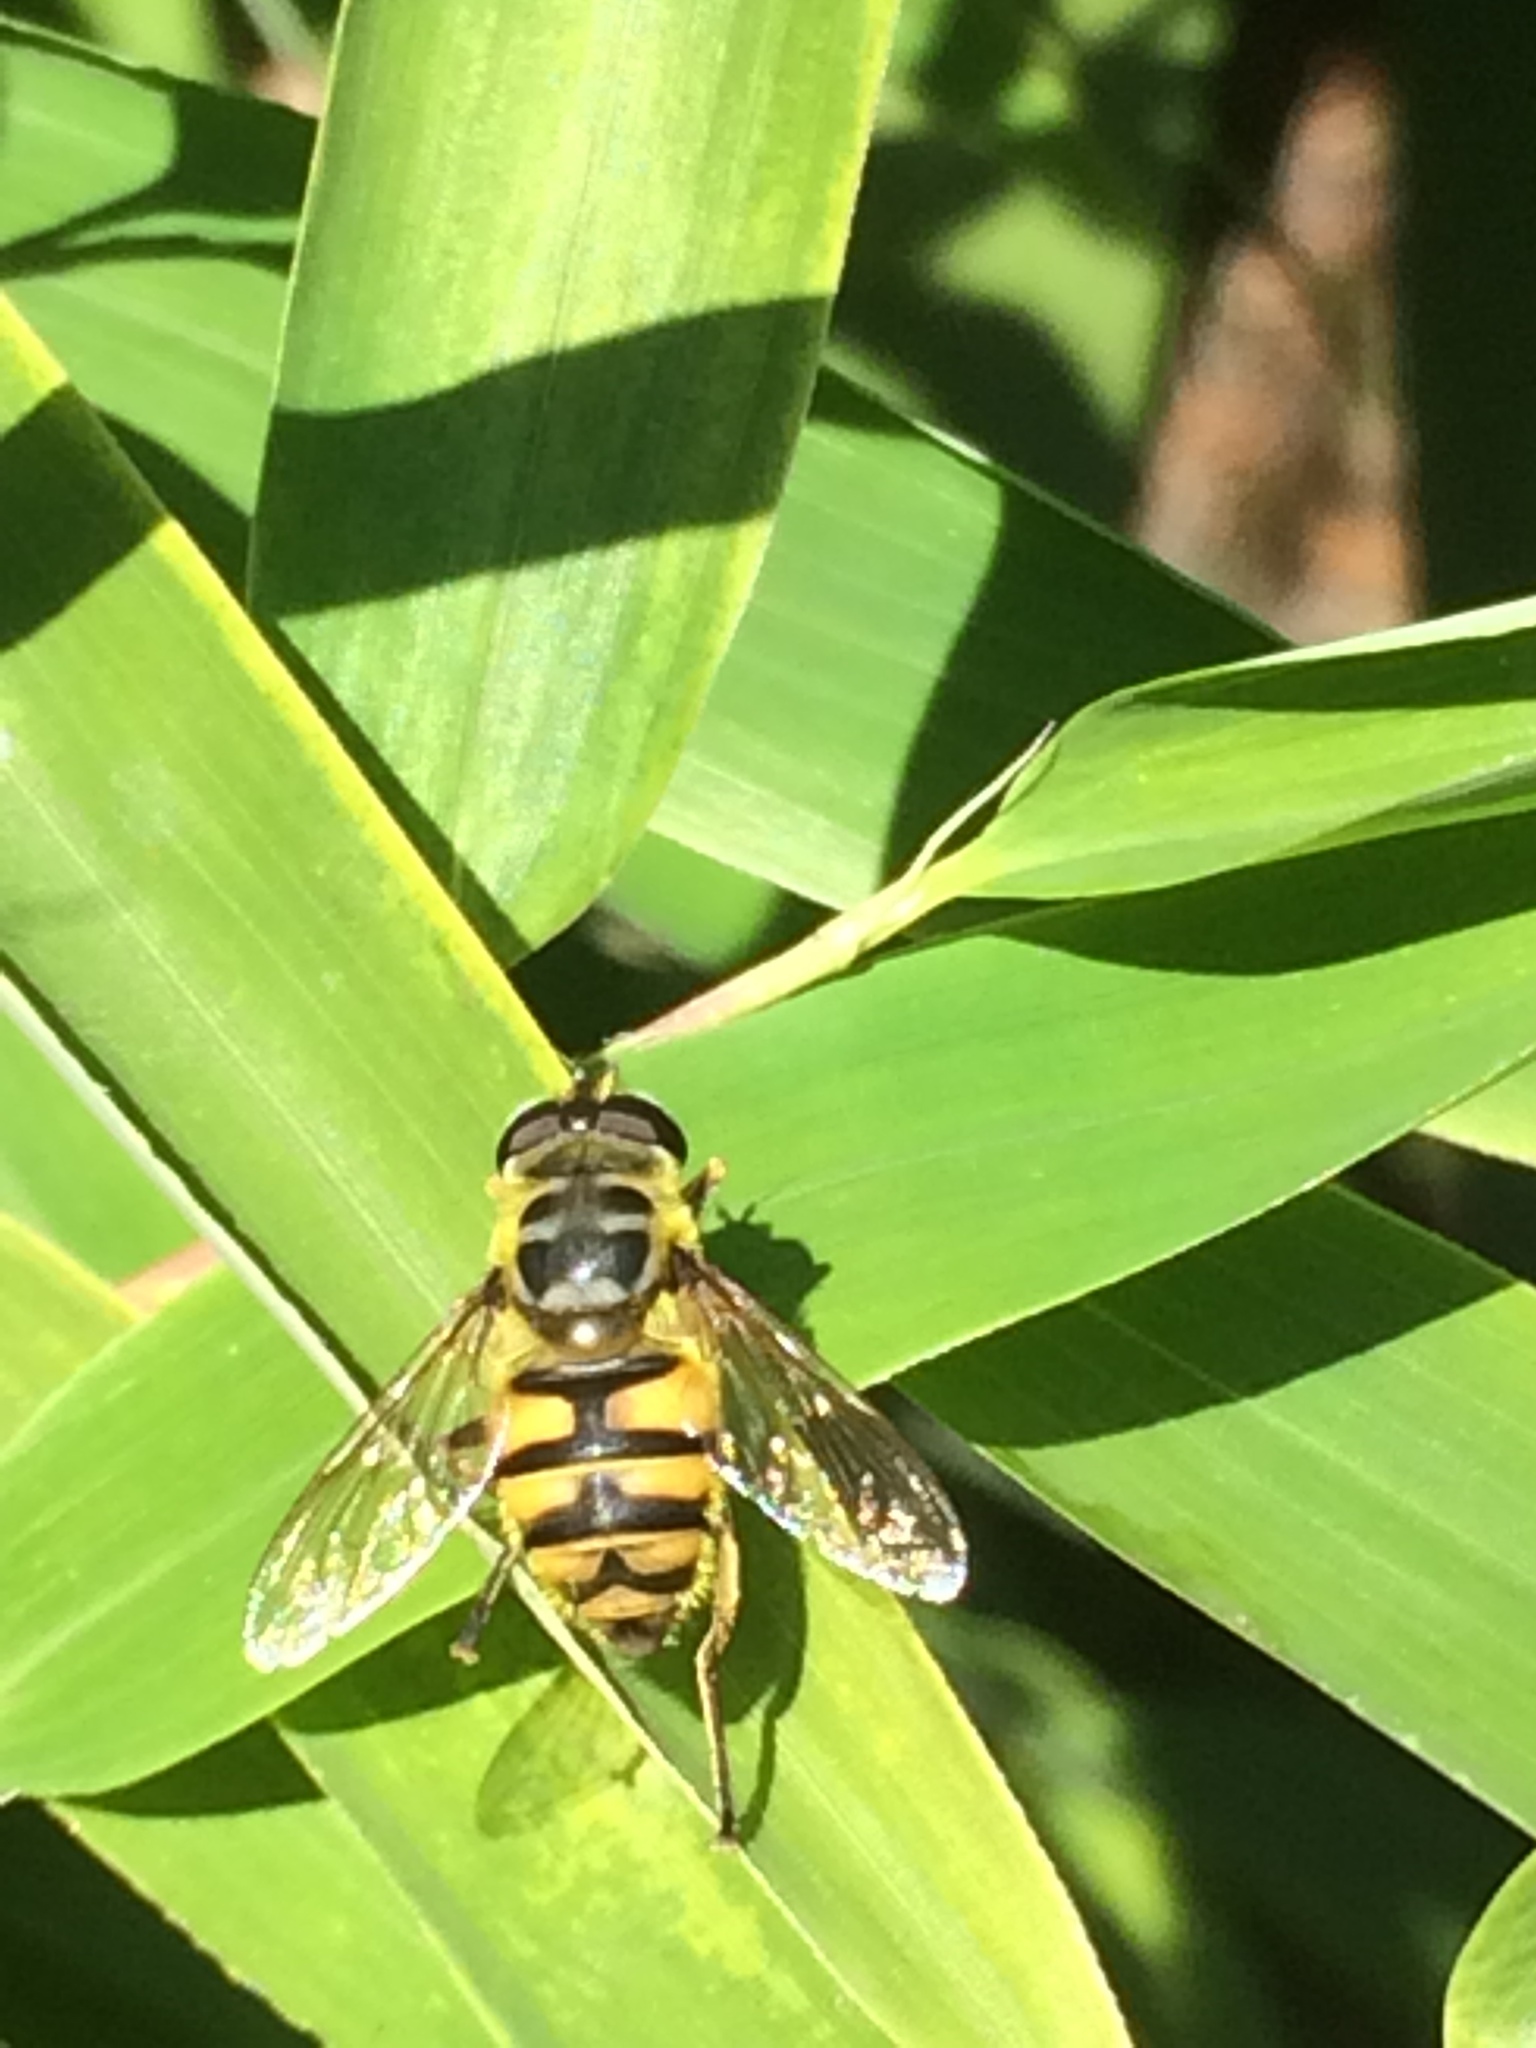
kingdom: Animalia
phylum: Arthropoda
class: Insecta
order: Diptera
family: Syrphidae
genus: Myathropa
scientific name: Myathropa florea
